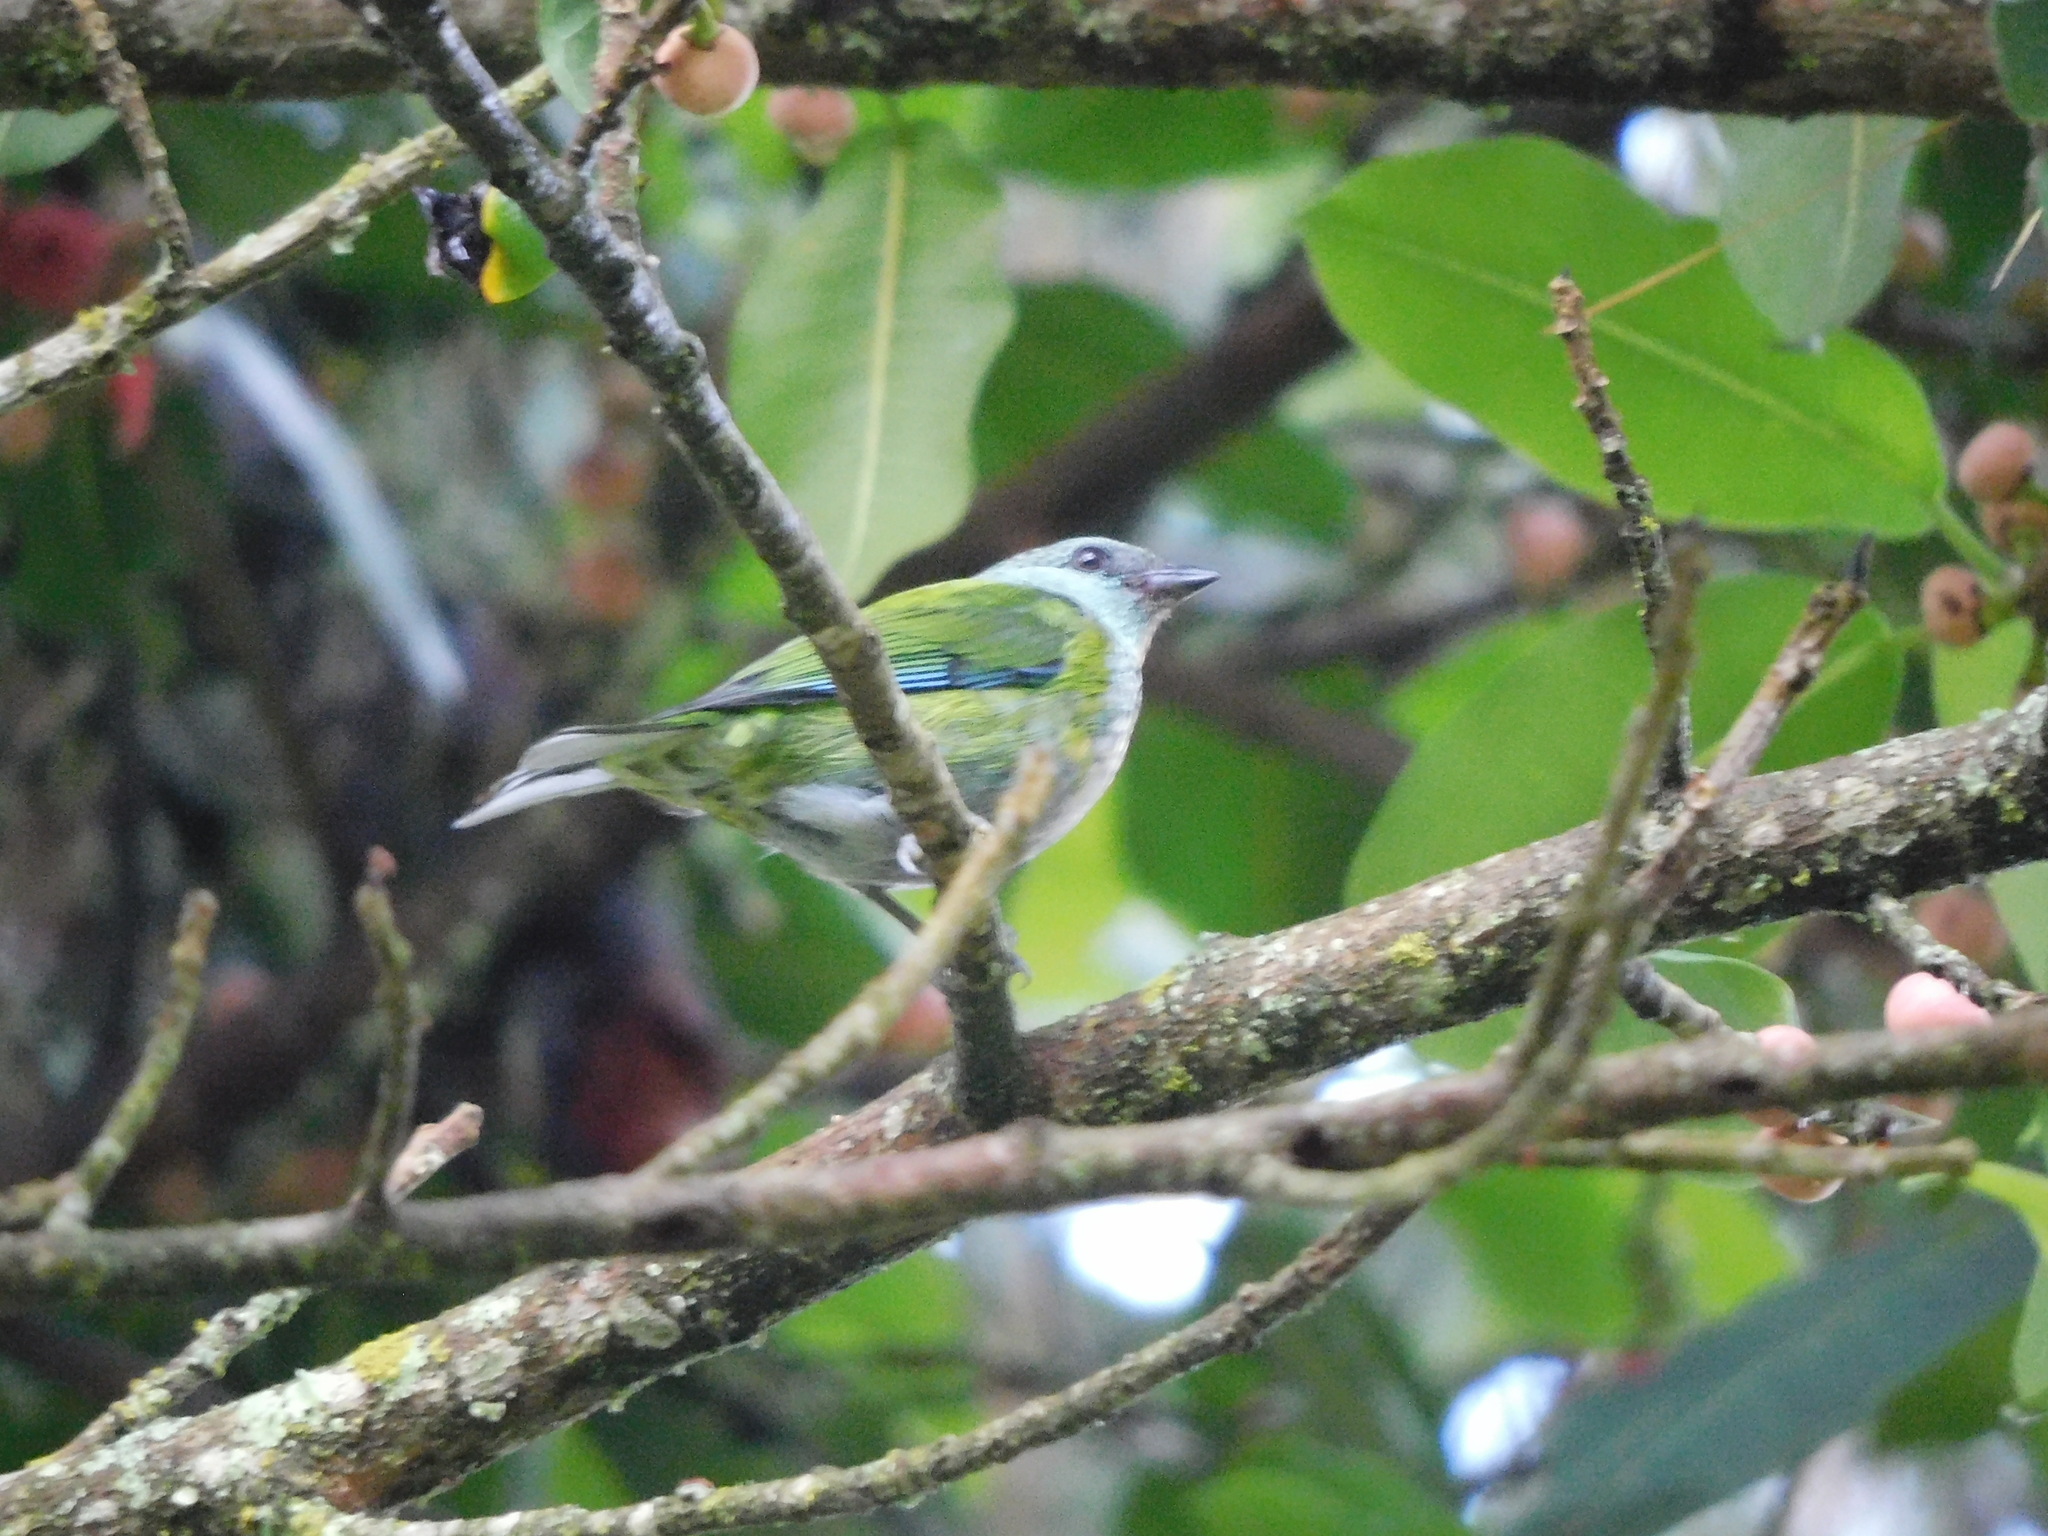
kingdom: Animalia
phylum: Chordata
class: Aves
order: Passeriformes
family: Thraupidae
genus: Stilpnia
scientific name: Stilpnia heinei
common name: Black-capped tanager
